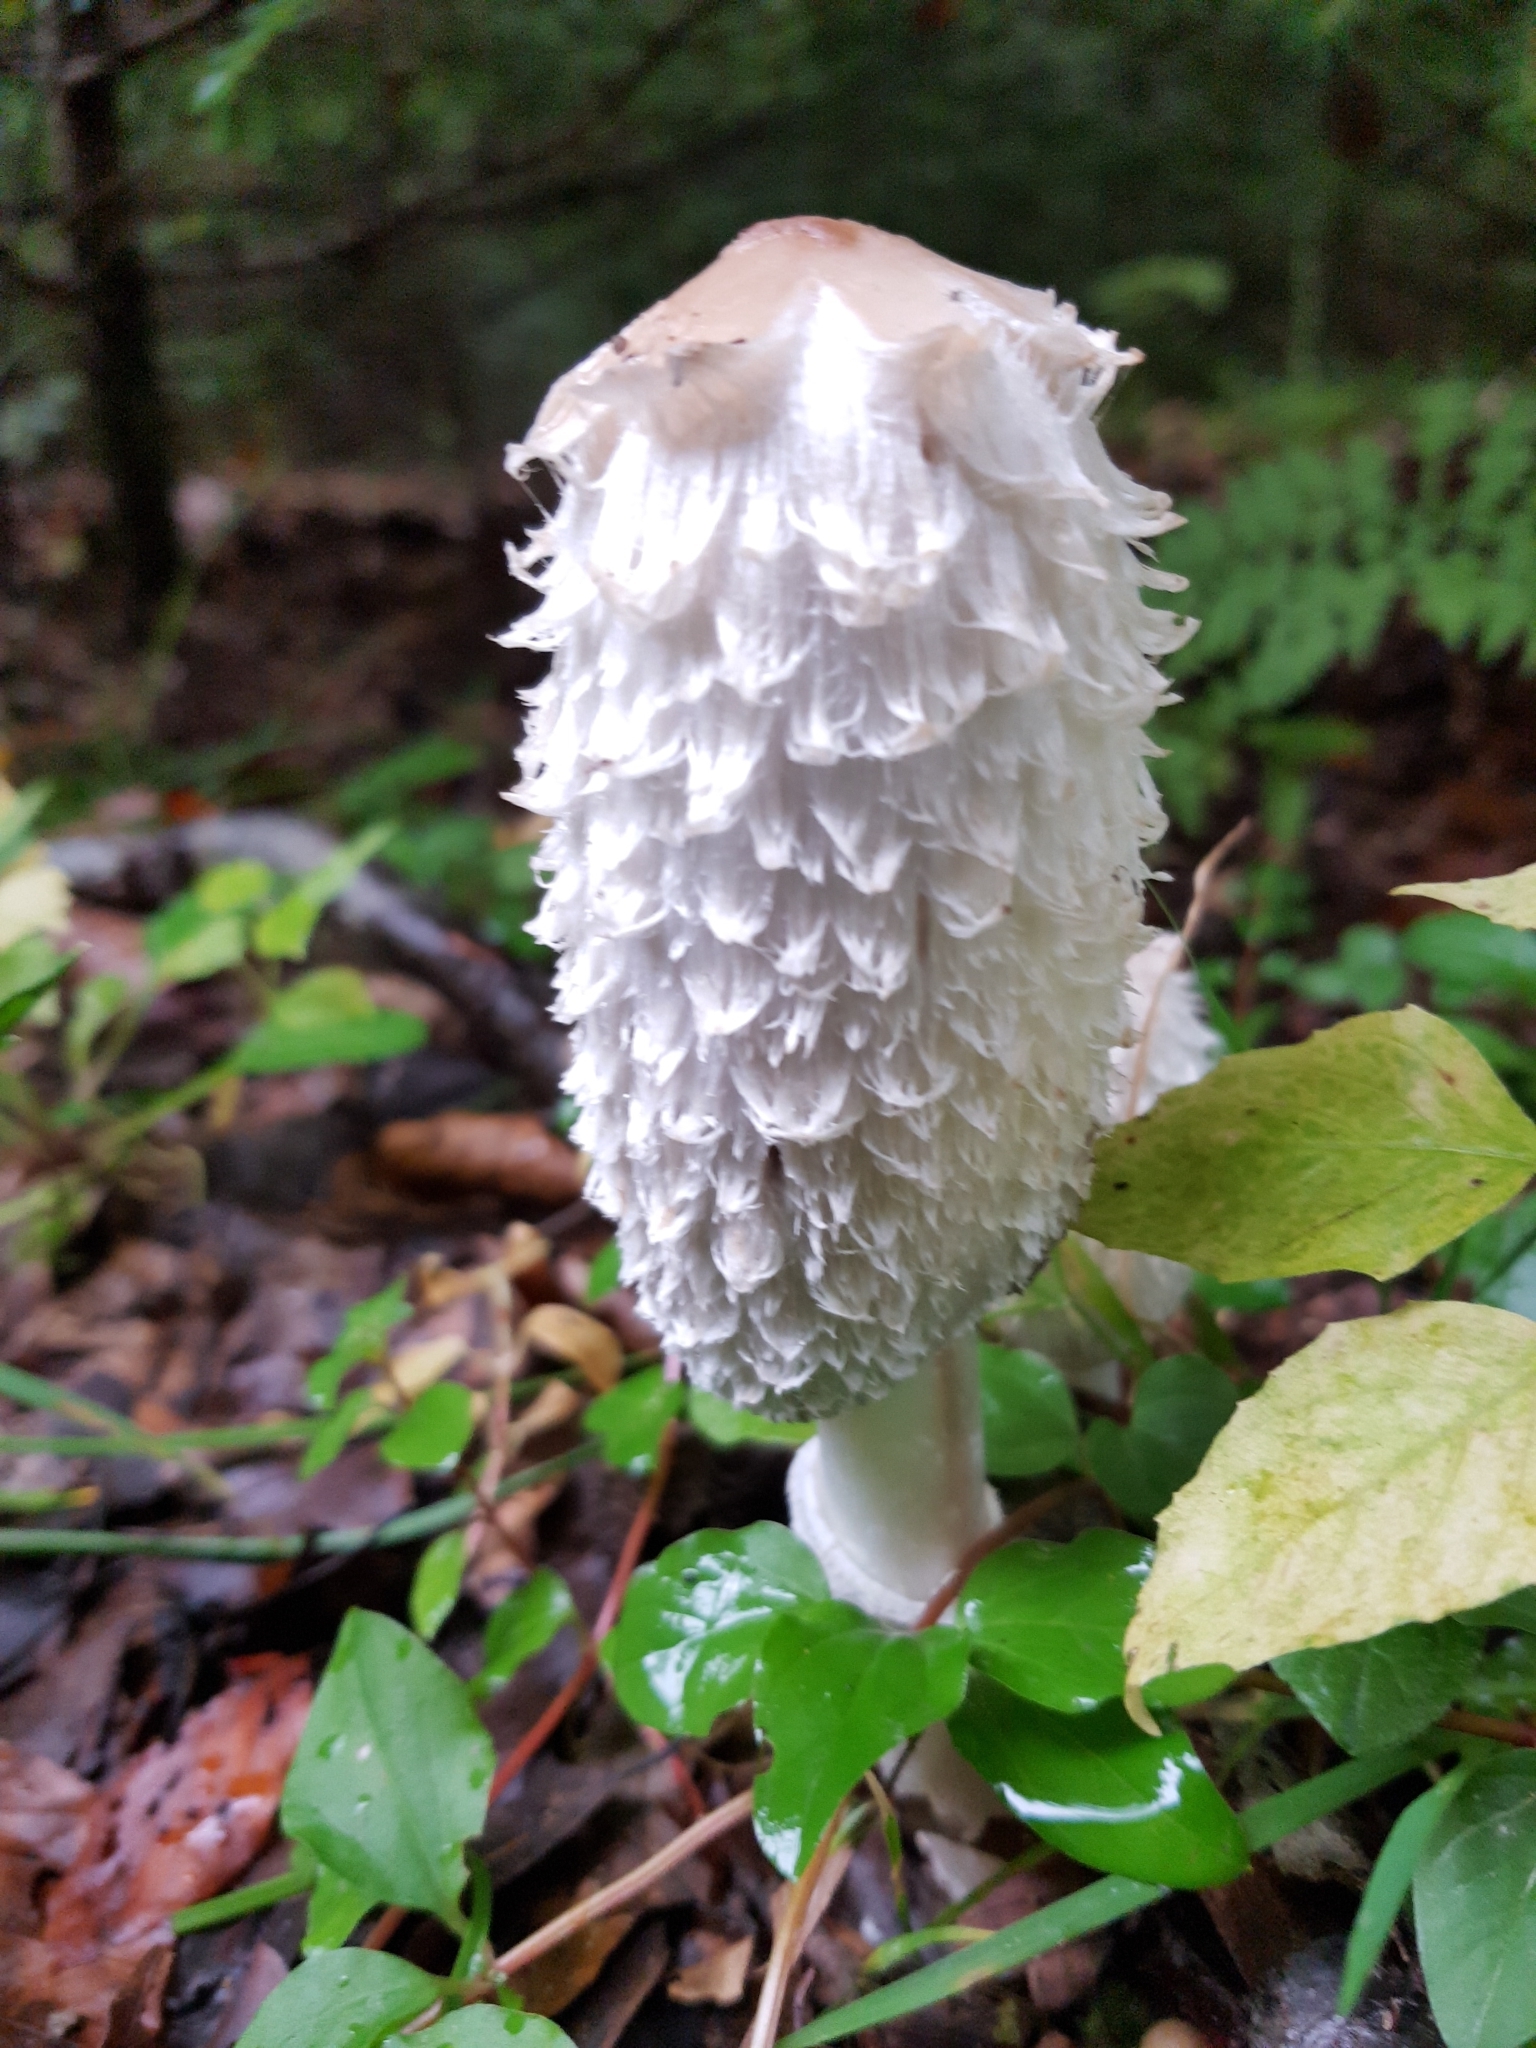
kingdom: Fungi
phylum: Basidiomycota
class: Agaricomycetes
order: Agaricales
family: Agaricaceae
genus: Coprinus
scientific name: Coprinus comatus
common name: Lawyer's wig
